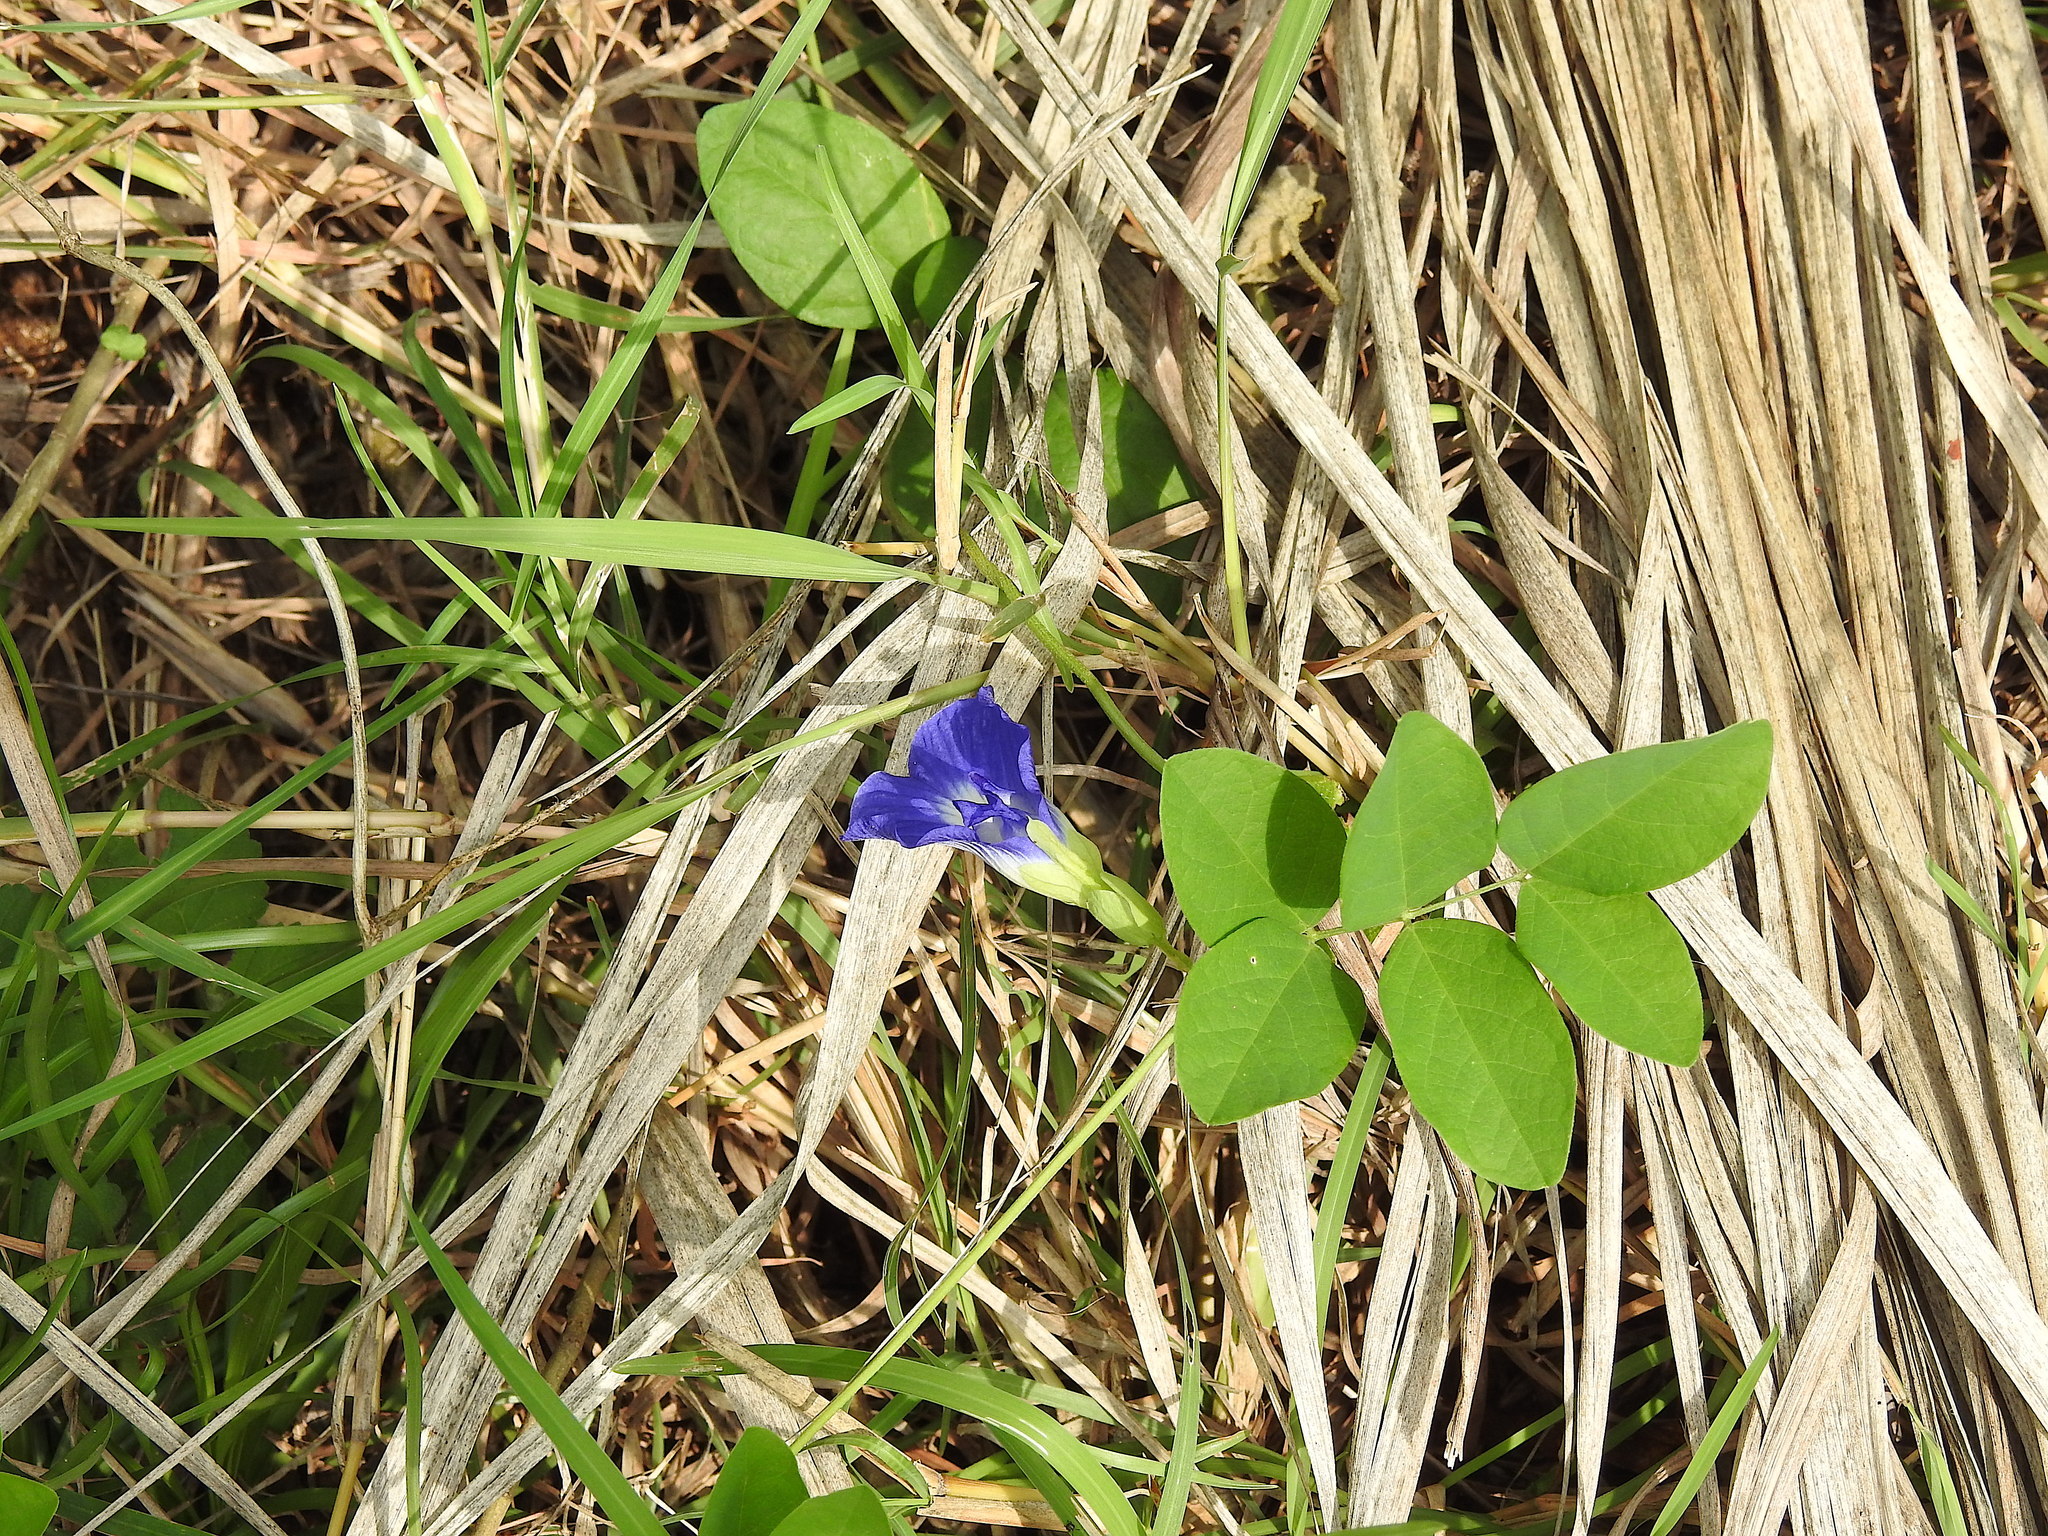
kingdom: Plantae
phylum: Tracheophyta
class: Magnoliopsida
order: Fabales
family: Fabaceae
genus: Clitoria
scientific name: Clitoria ternatea
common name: Asian pigeonwings
